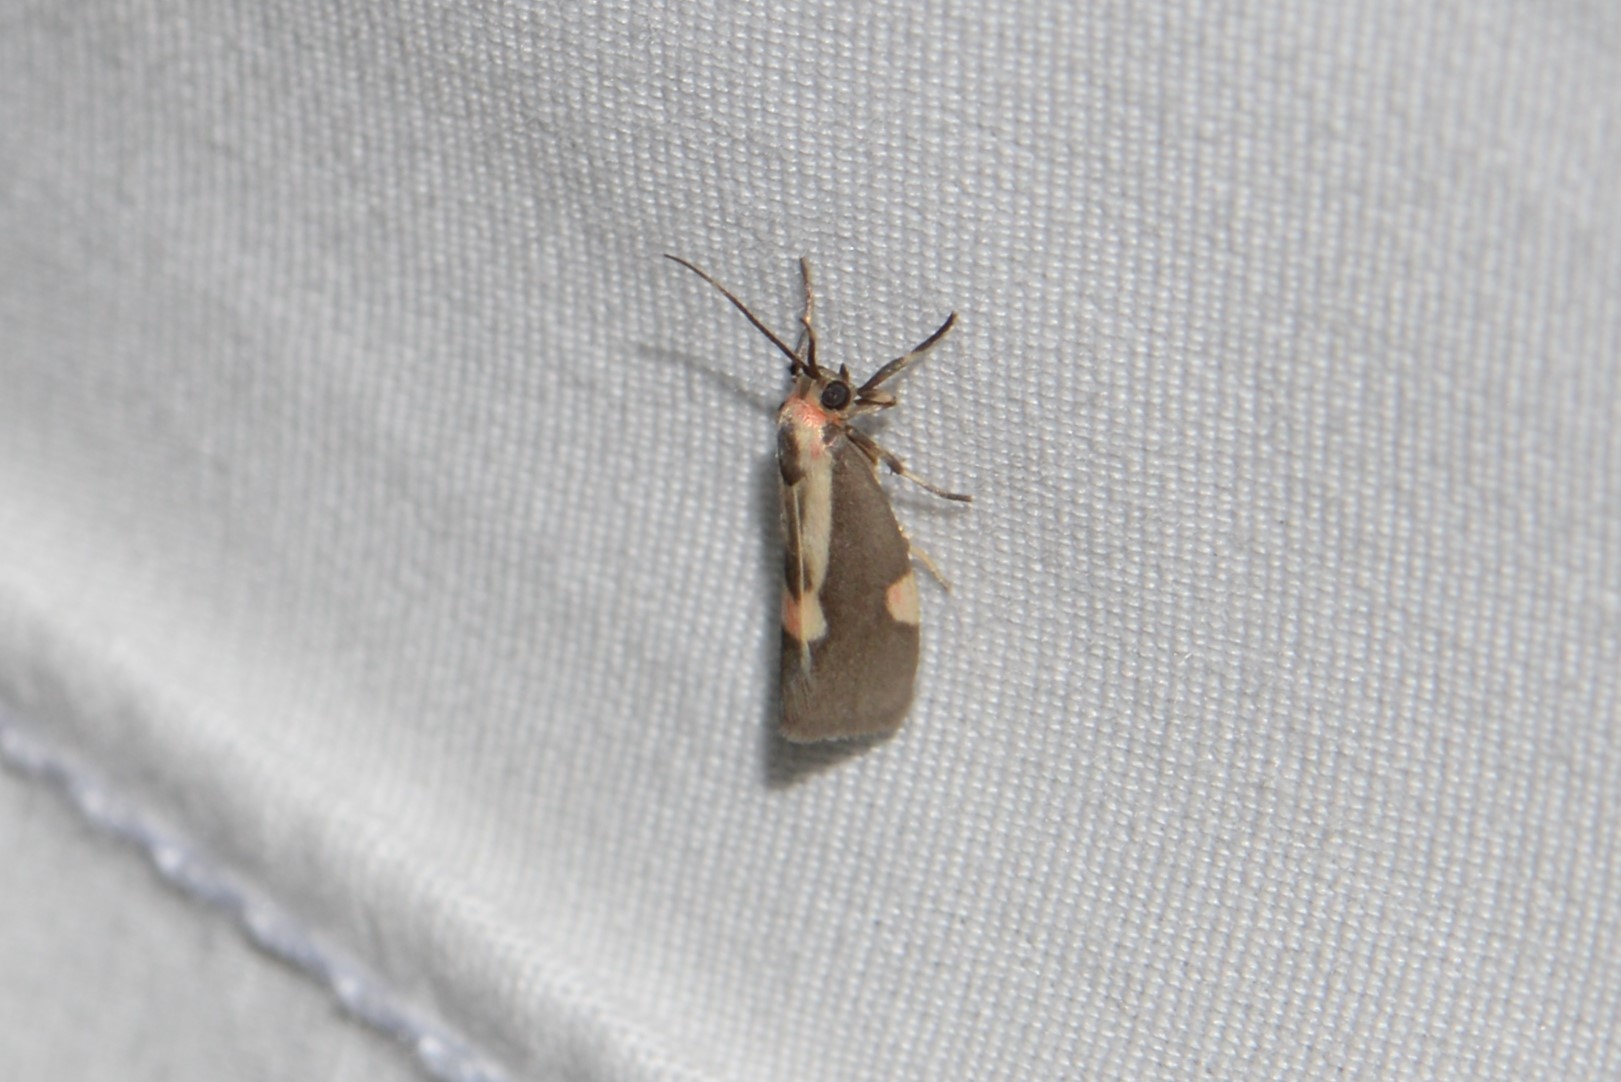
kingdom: Animalia
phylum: Arthropoda
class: Insecta
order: Lepidoptera
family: Erebidae
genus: Cisthene
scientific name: Cisthene packardii
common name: Packard's lichen moth
